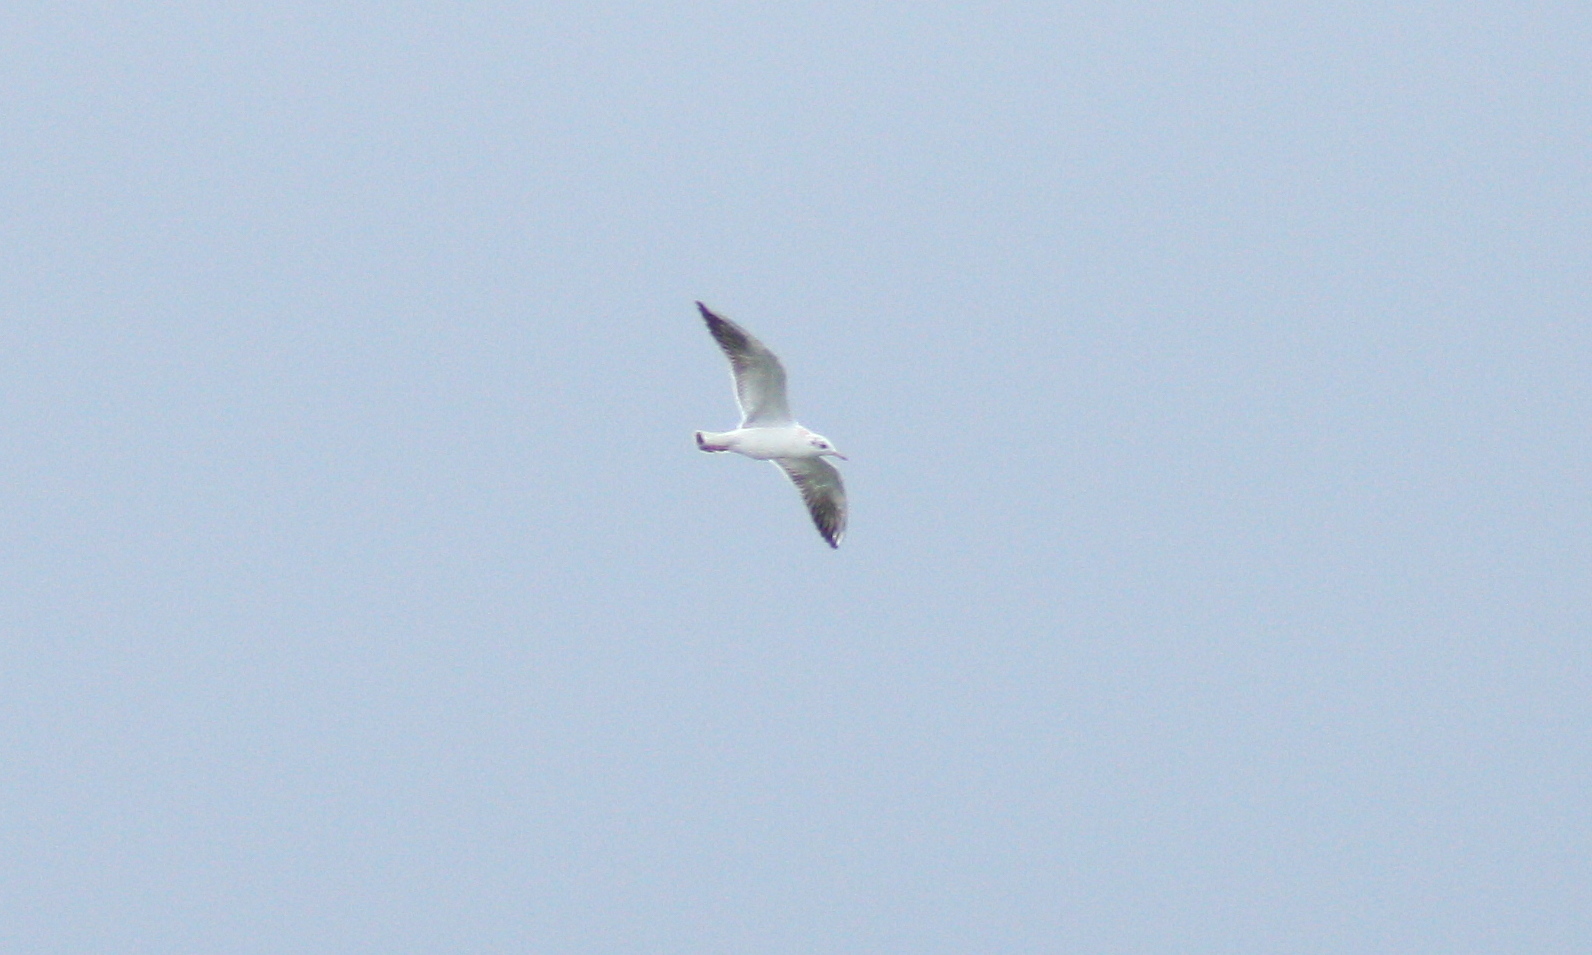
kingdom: Animalia
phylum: Chordata
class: Aves
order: Charadriiformes
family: Laridae
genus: Chroicocephalus
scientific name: Chroicocephalus ridibundus
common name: Black-headed gull
